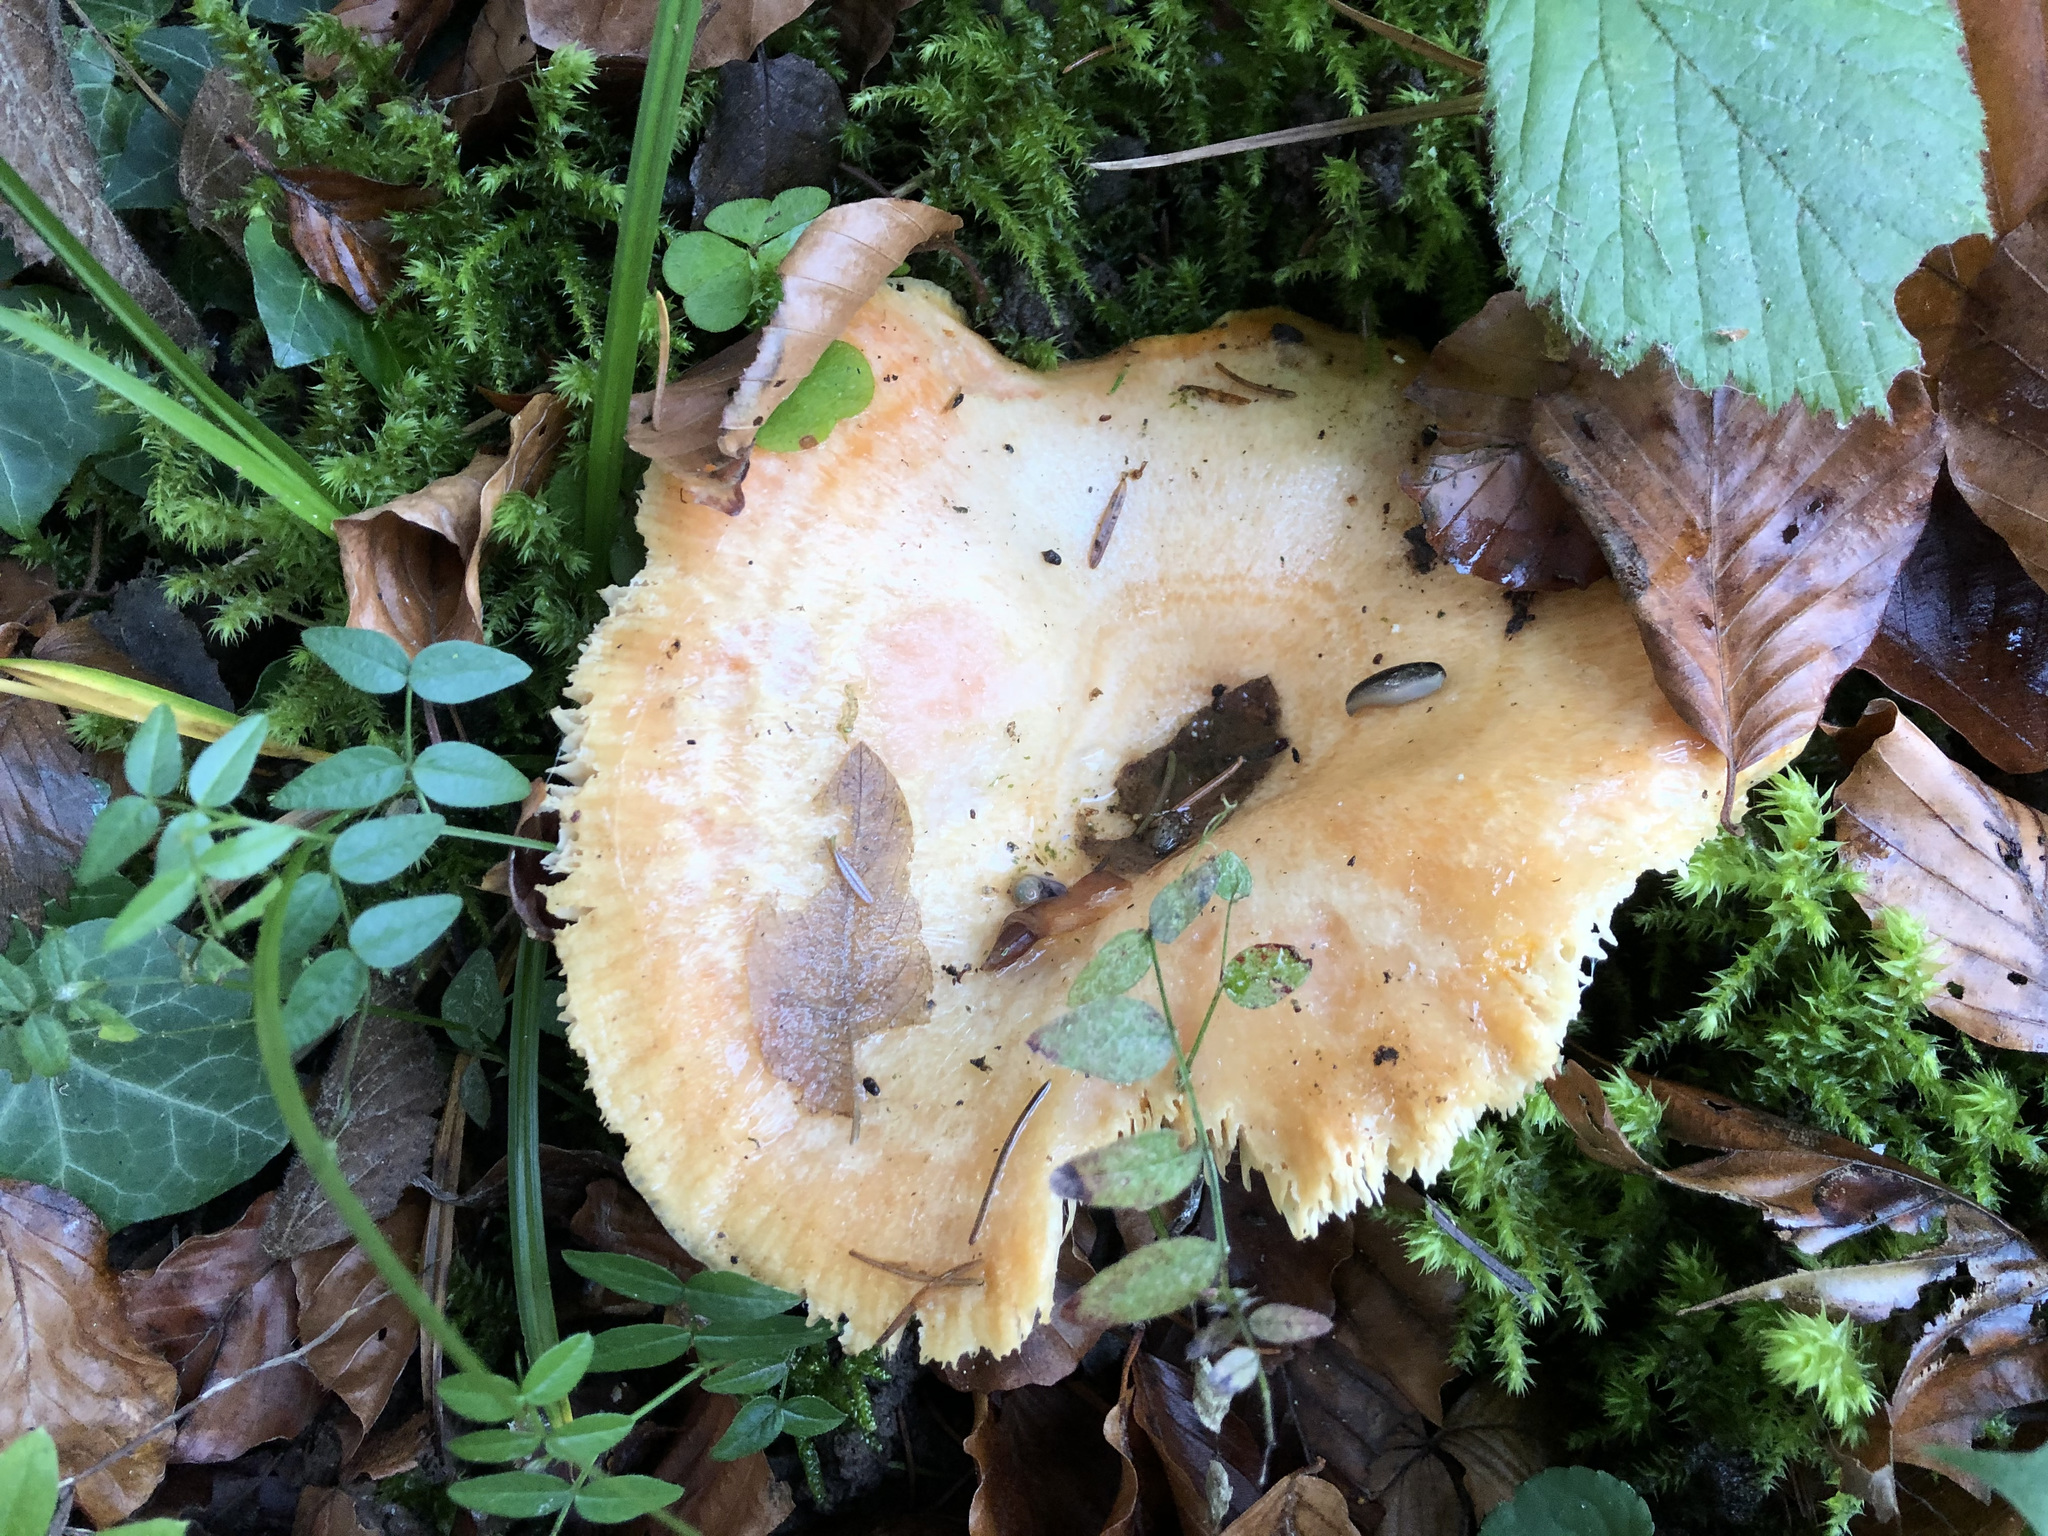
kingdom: Fungi
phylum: Basidiomycota
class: Agaricomycetes
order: Russulales
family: Russulaceae
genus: Lactarius
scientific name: Lactarius salmonicolor
